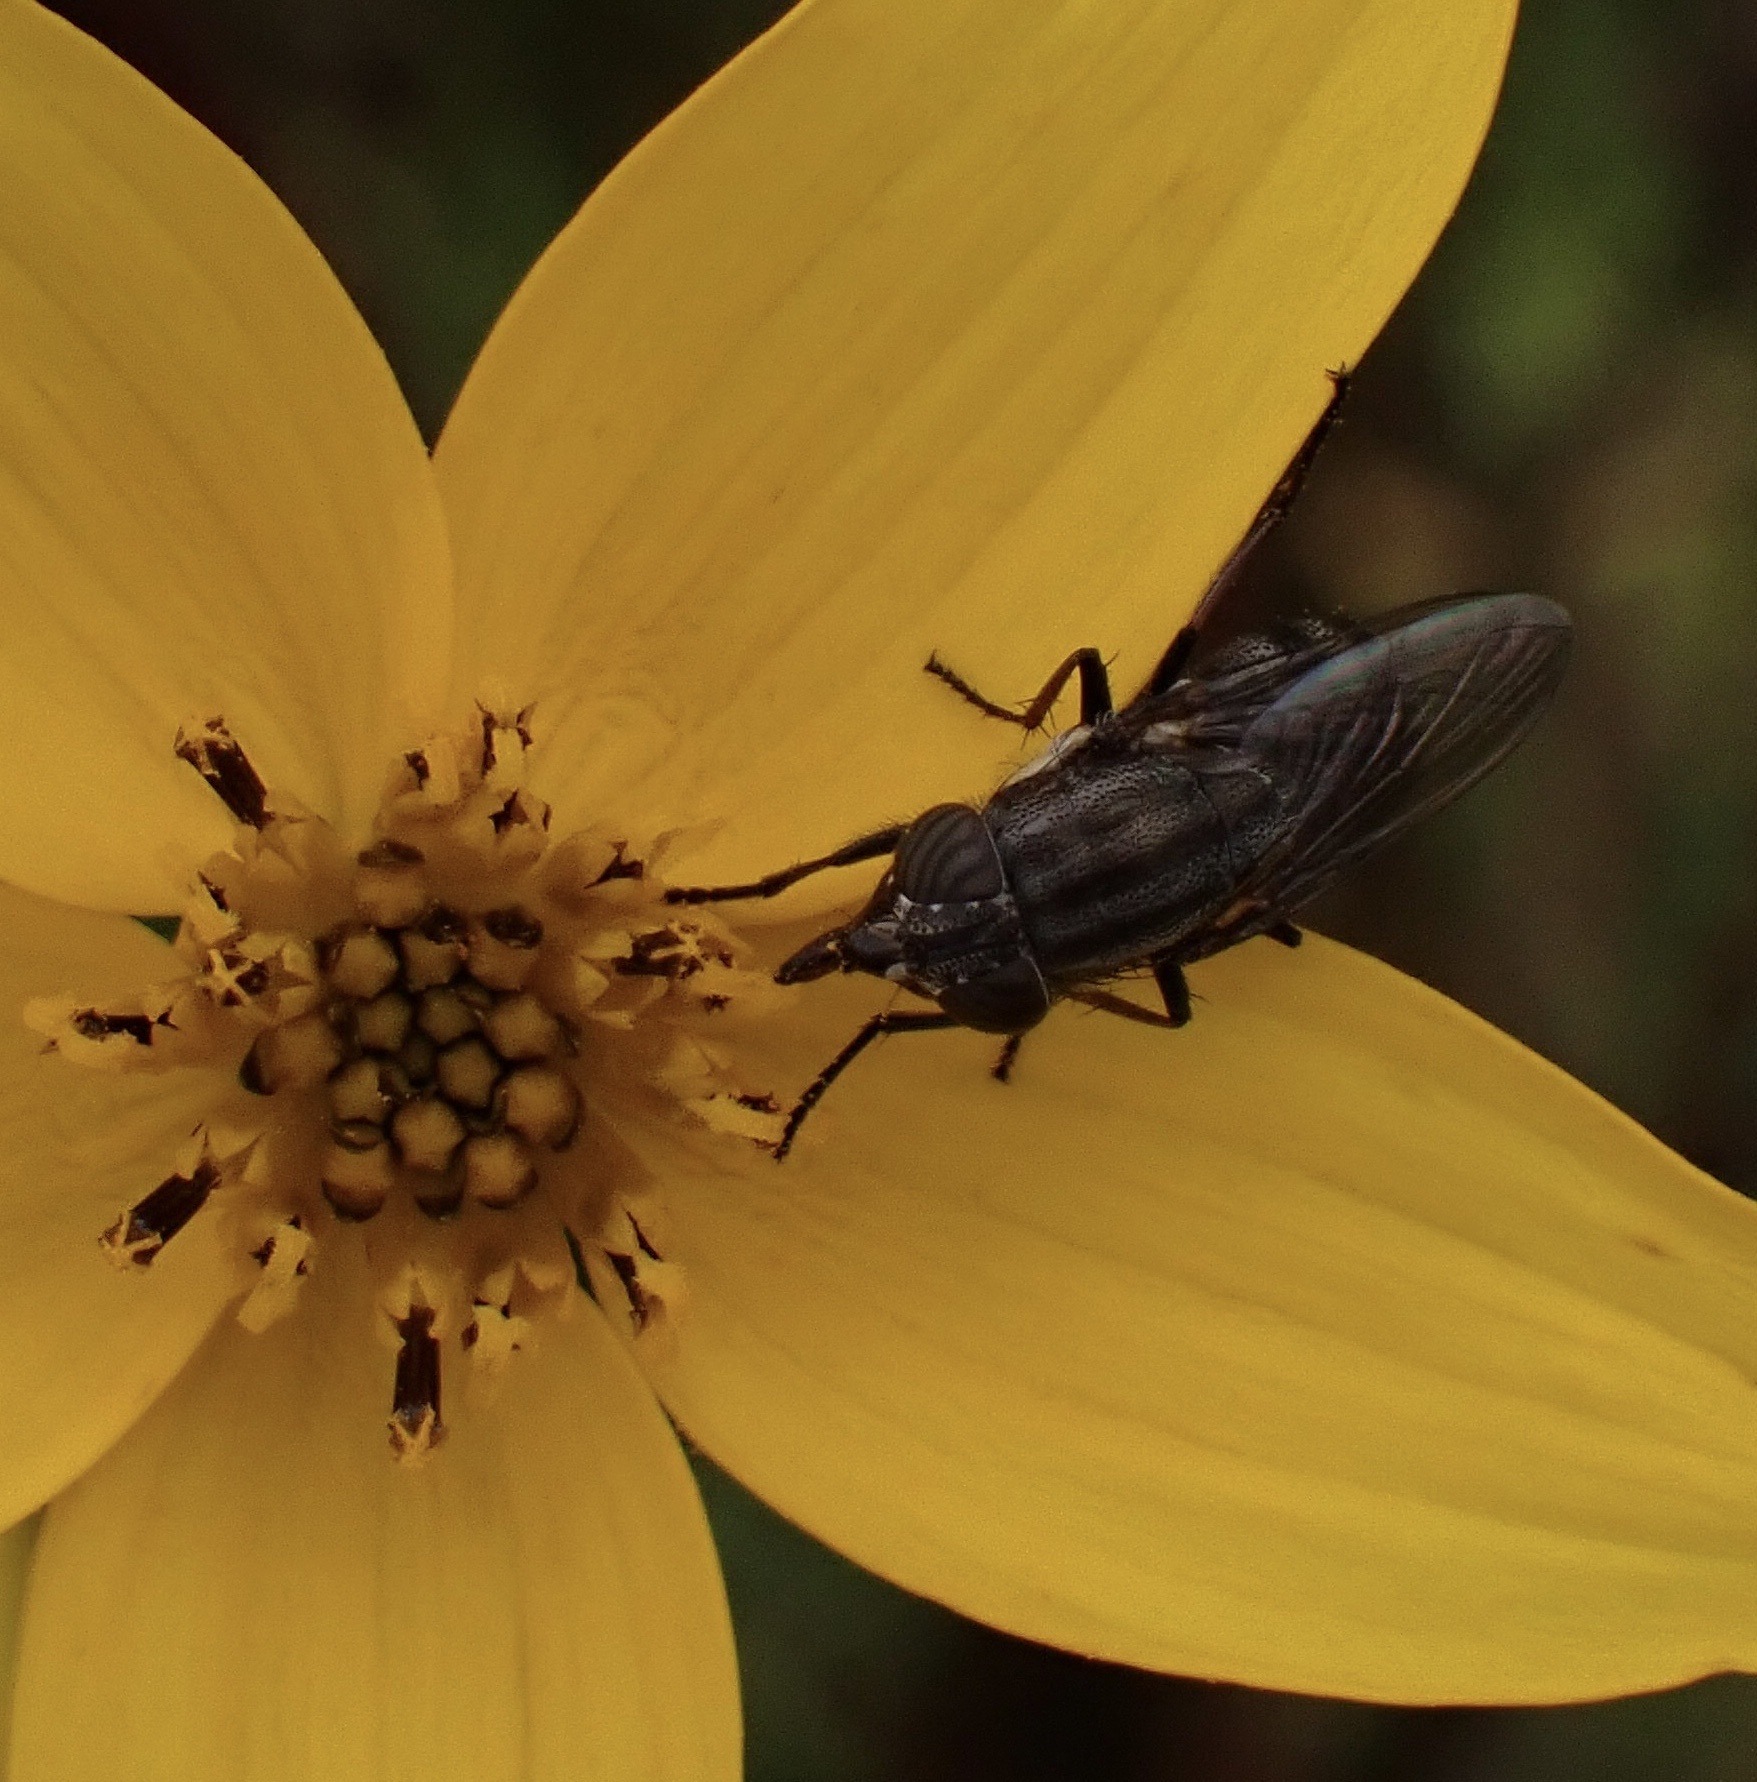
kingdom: Animalia
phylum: Arthropoda
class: Insecta
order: Diptera
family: Calliphoridae
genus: Stomorhina
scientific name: Stomorhina lunata
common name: Locust blowfly
